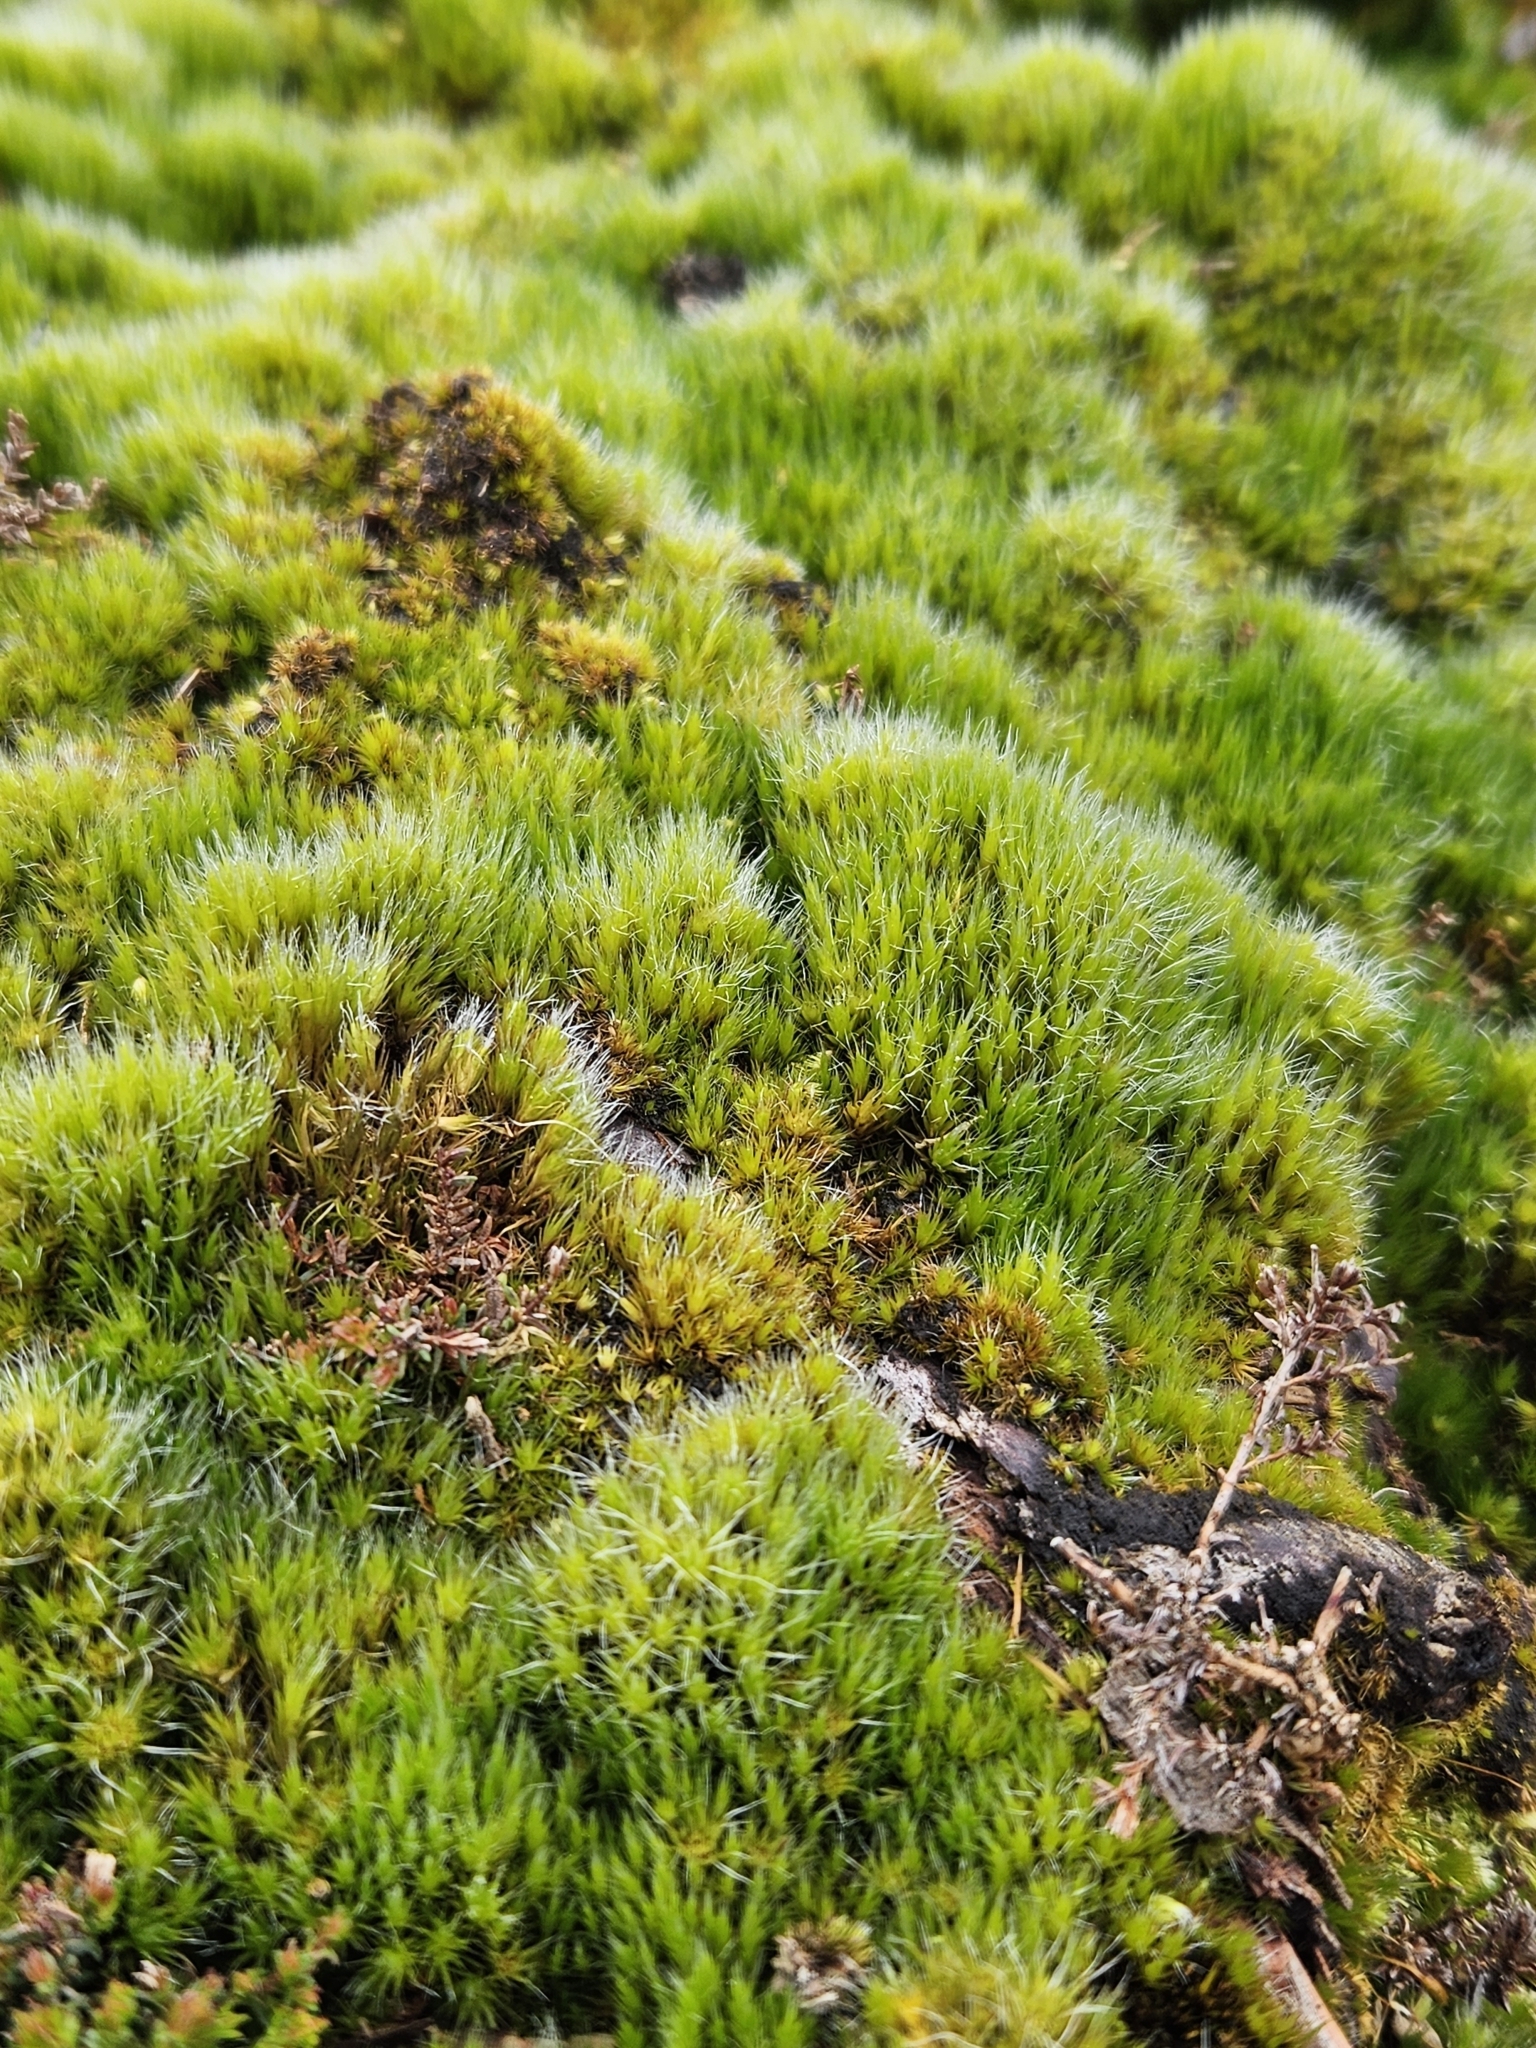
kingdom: Plantae
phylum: Bryophyta
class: Bryopsida
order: Dicranales
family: Leucobryaceae
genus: Campylopus
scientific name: Campylopus introflexus
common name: Heath star moss
